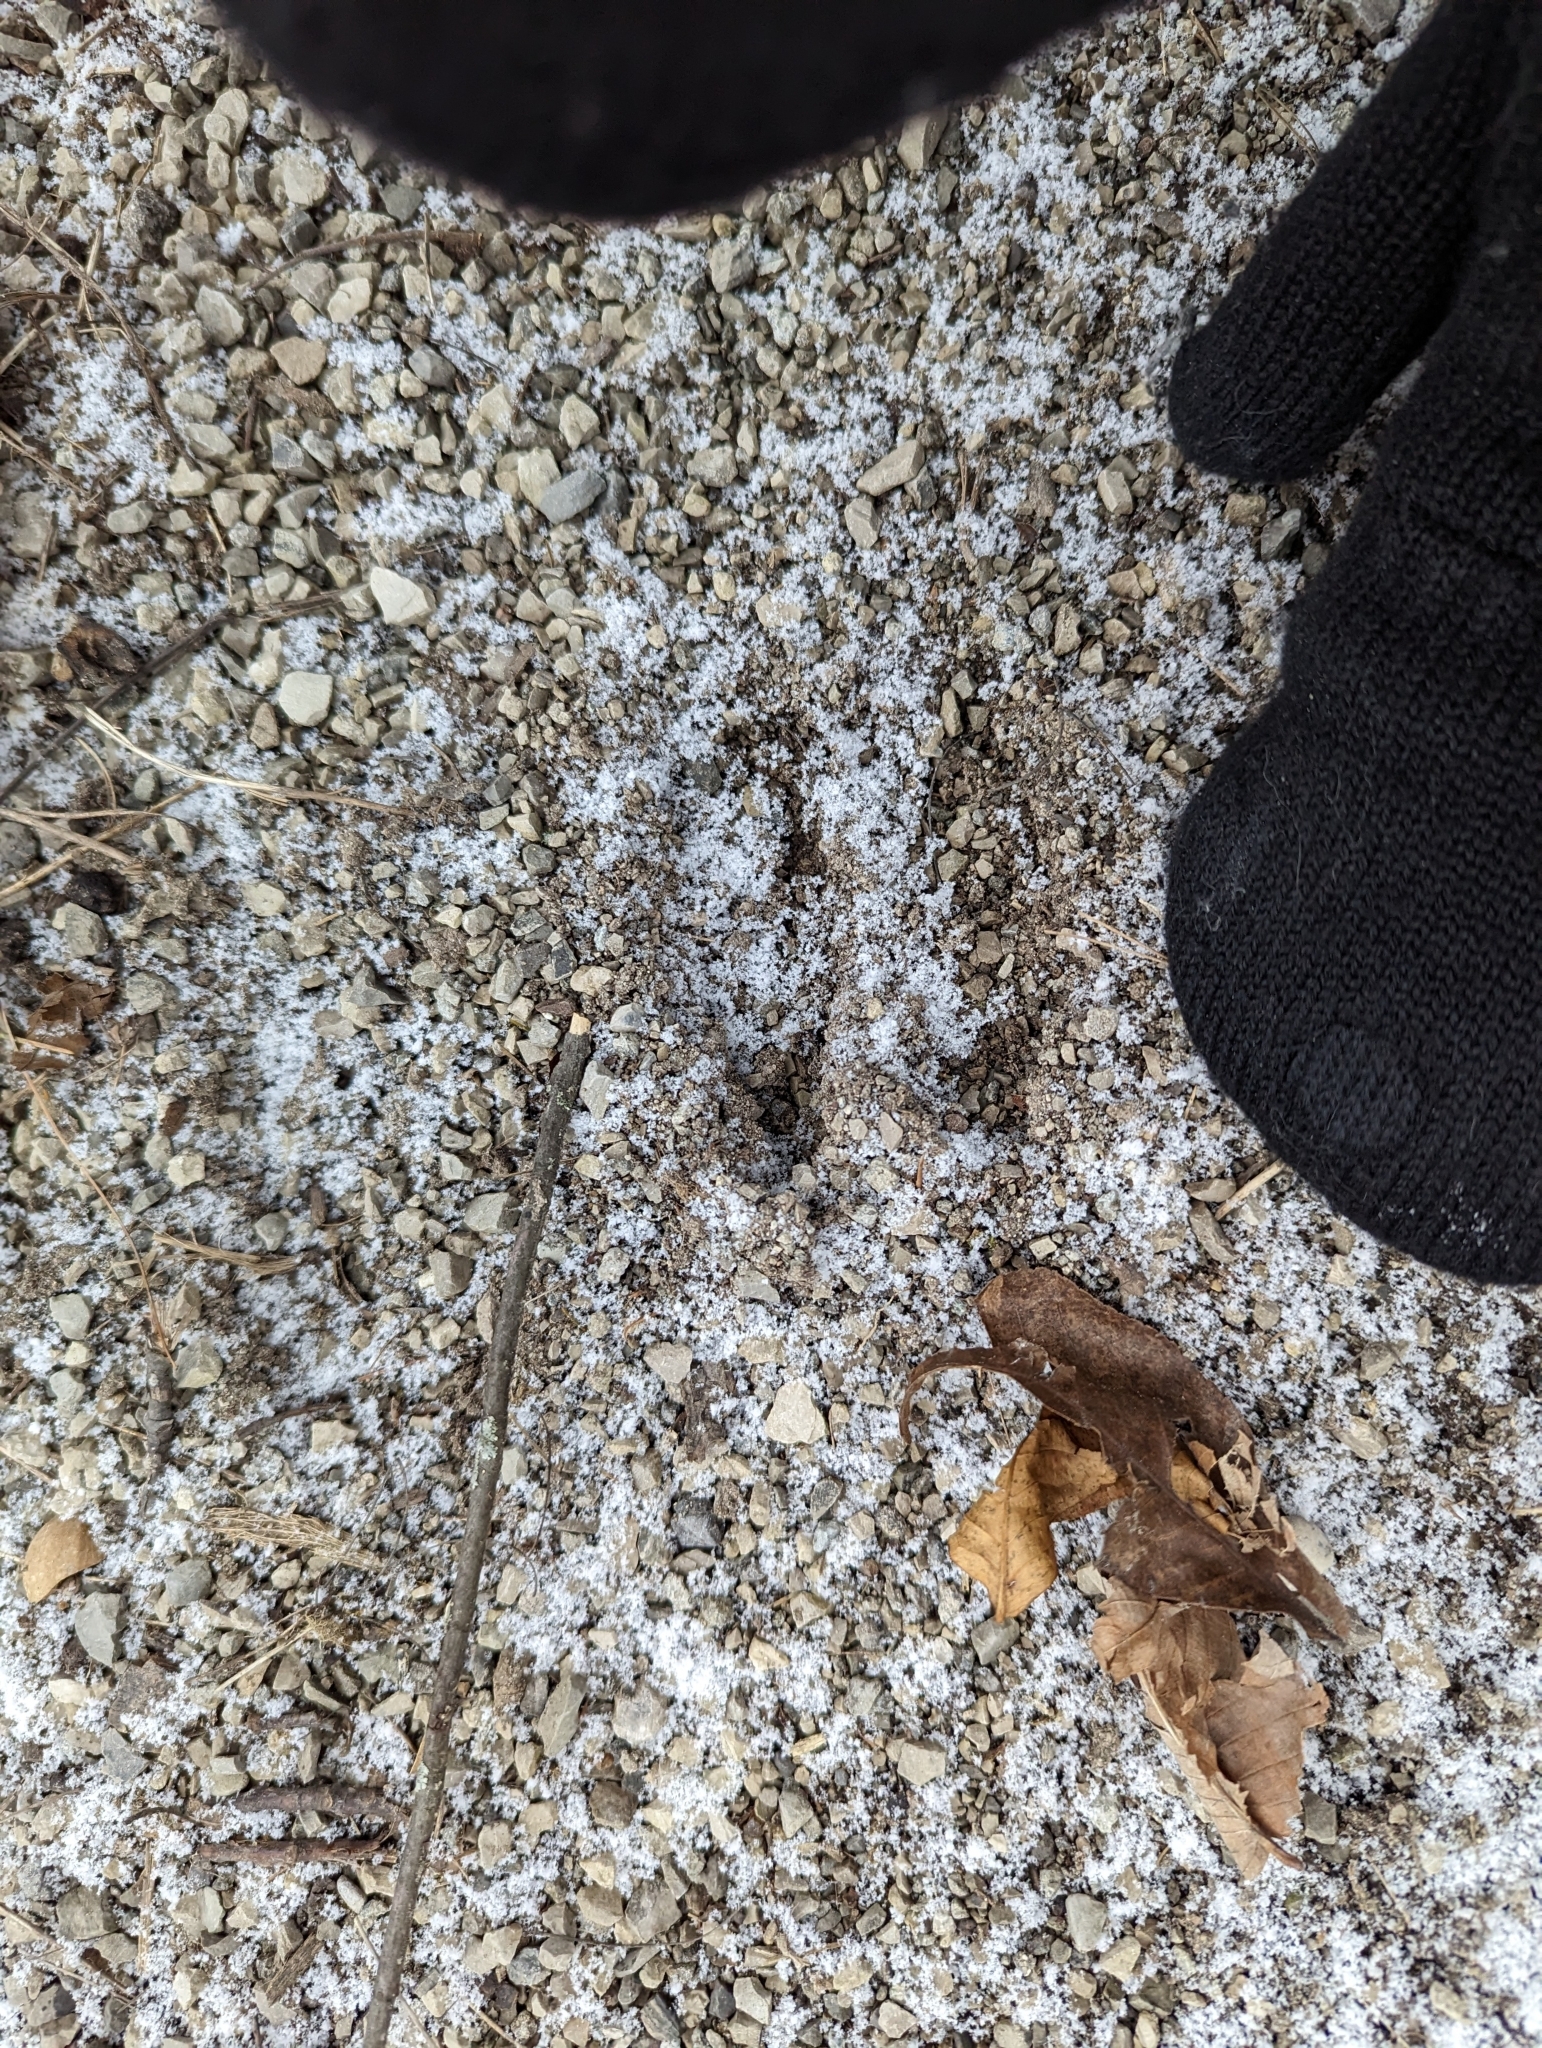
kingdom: Animalia
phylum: Chordata
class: Mammalia
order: Artiodactyla
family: Cervidae
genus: Odocoileus
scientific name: Odocoileus virginianus
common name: White-tailed deer
